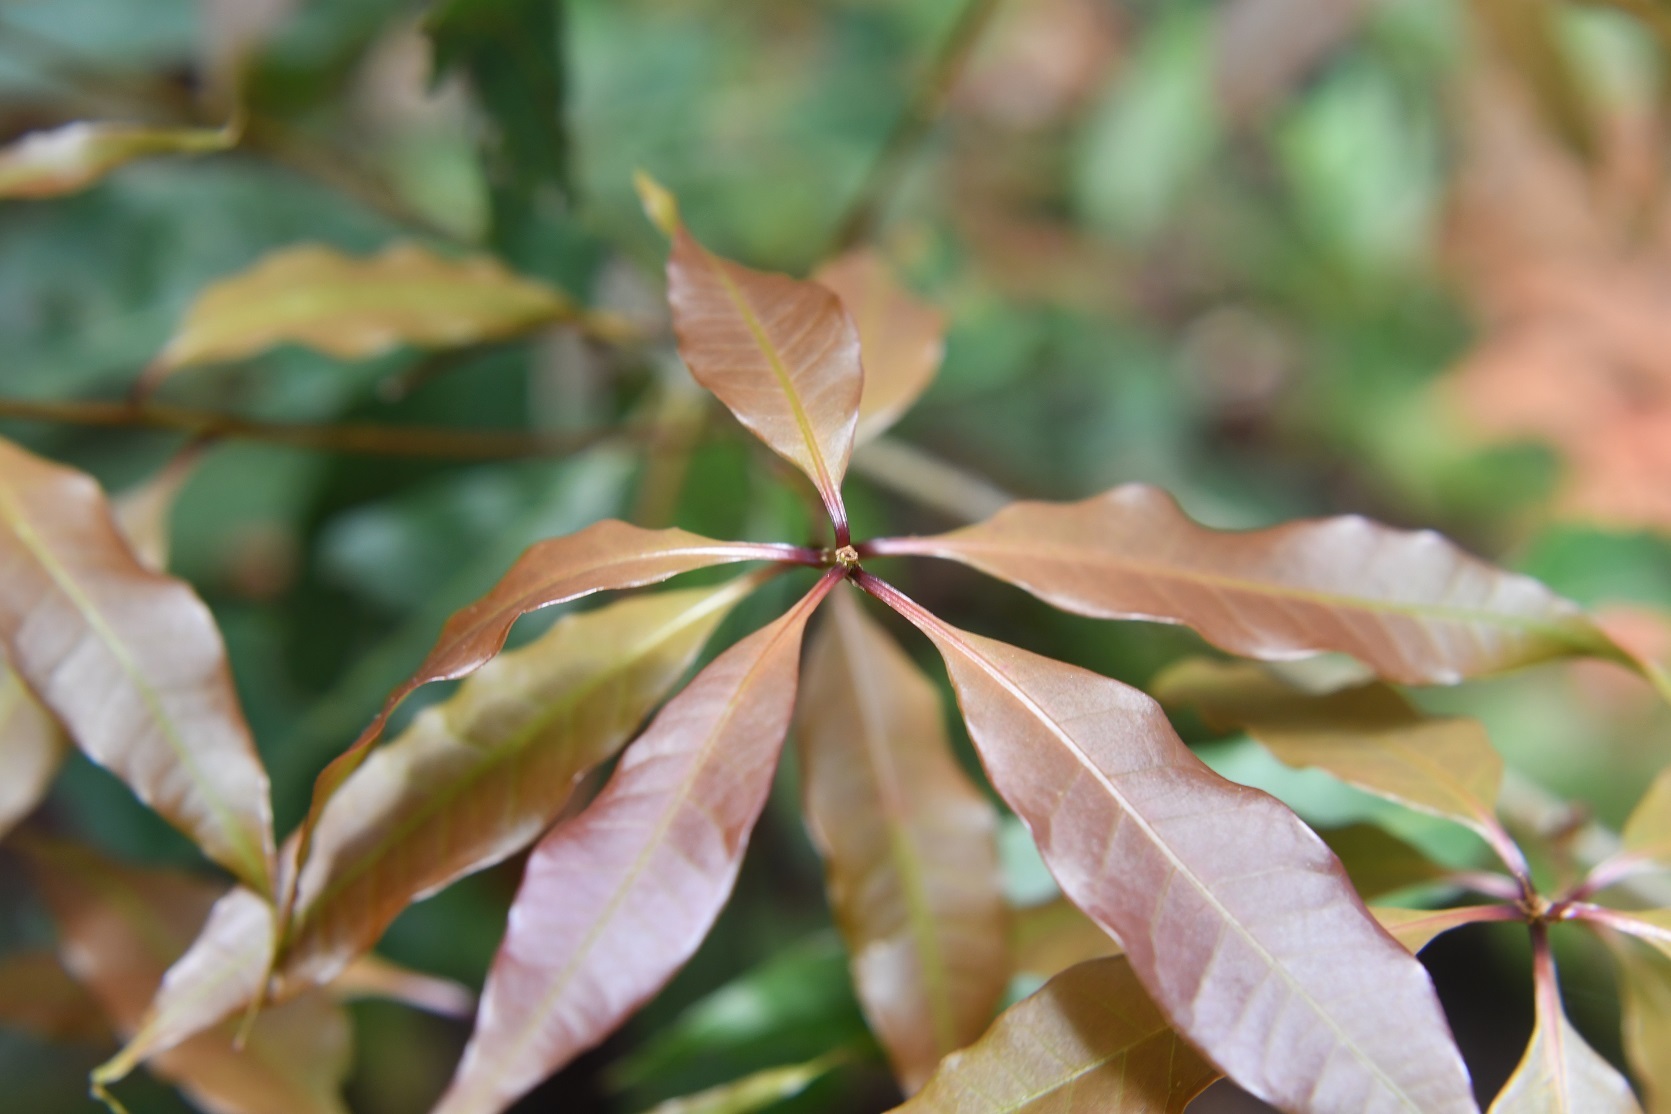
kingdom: Plantae
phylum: Tracheophyta
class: Magnoliopsida
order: Fagales
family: Fagaceae
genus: Quercus
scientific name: Quercus seemannii
